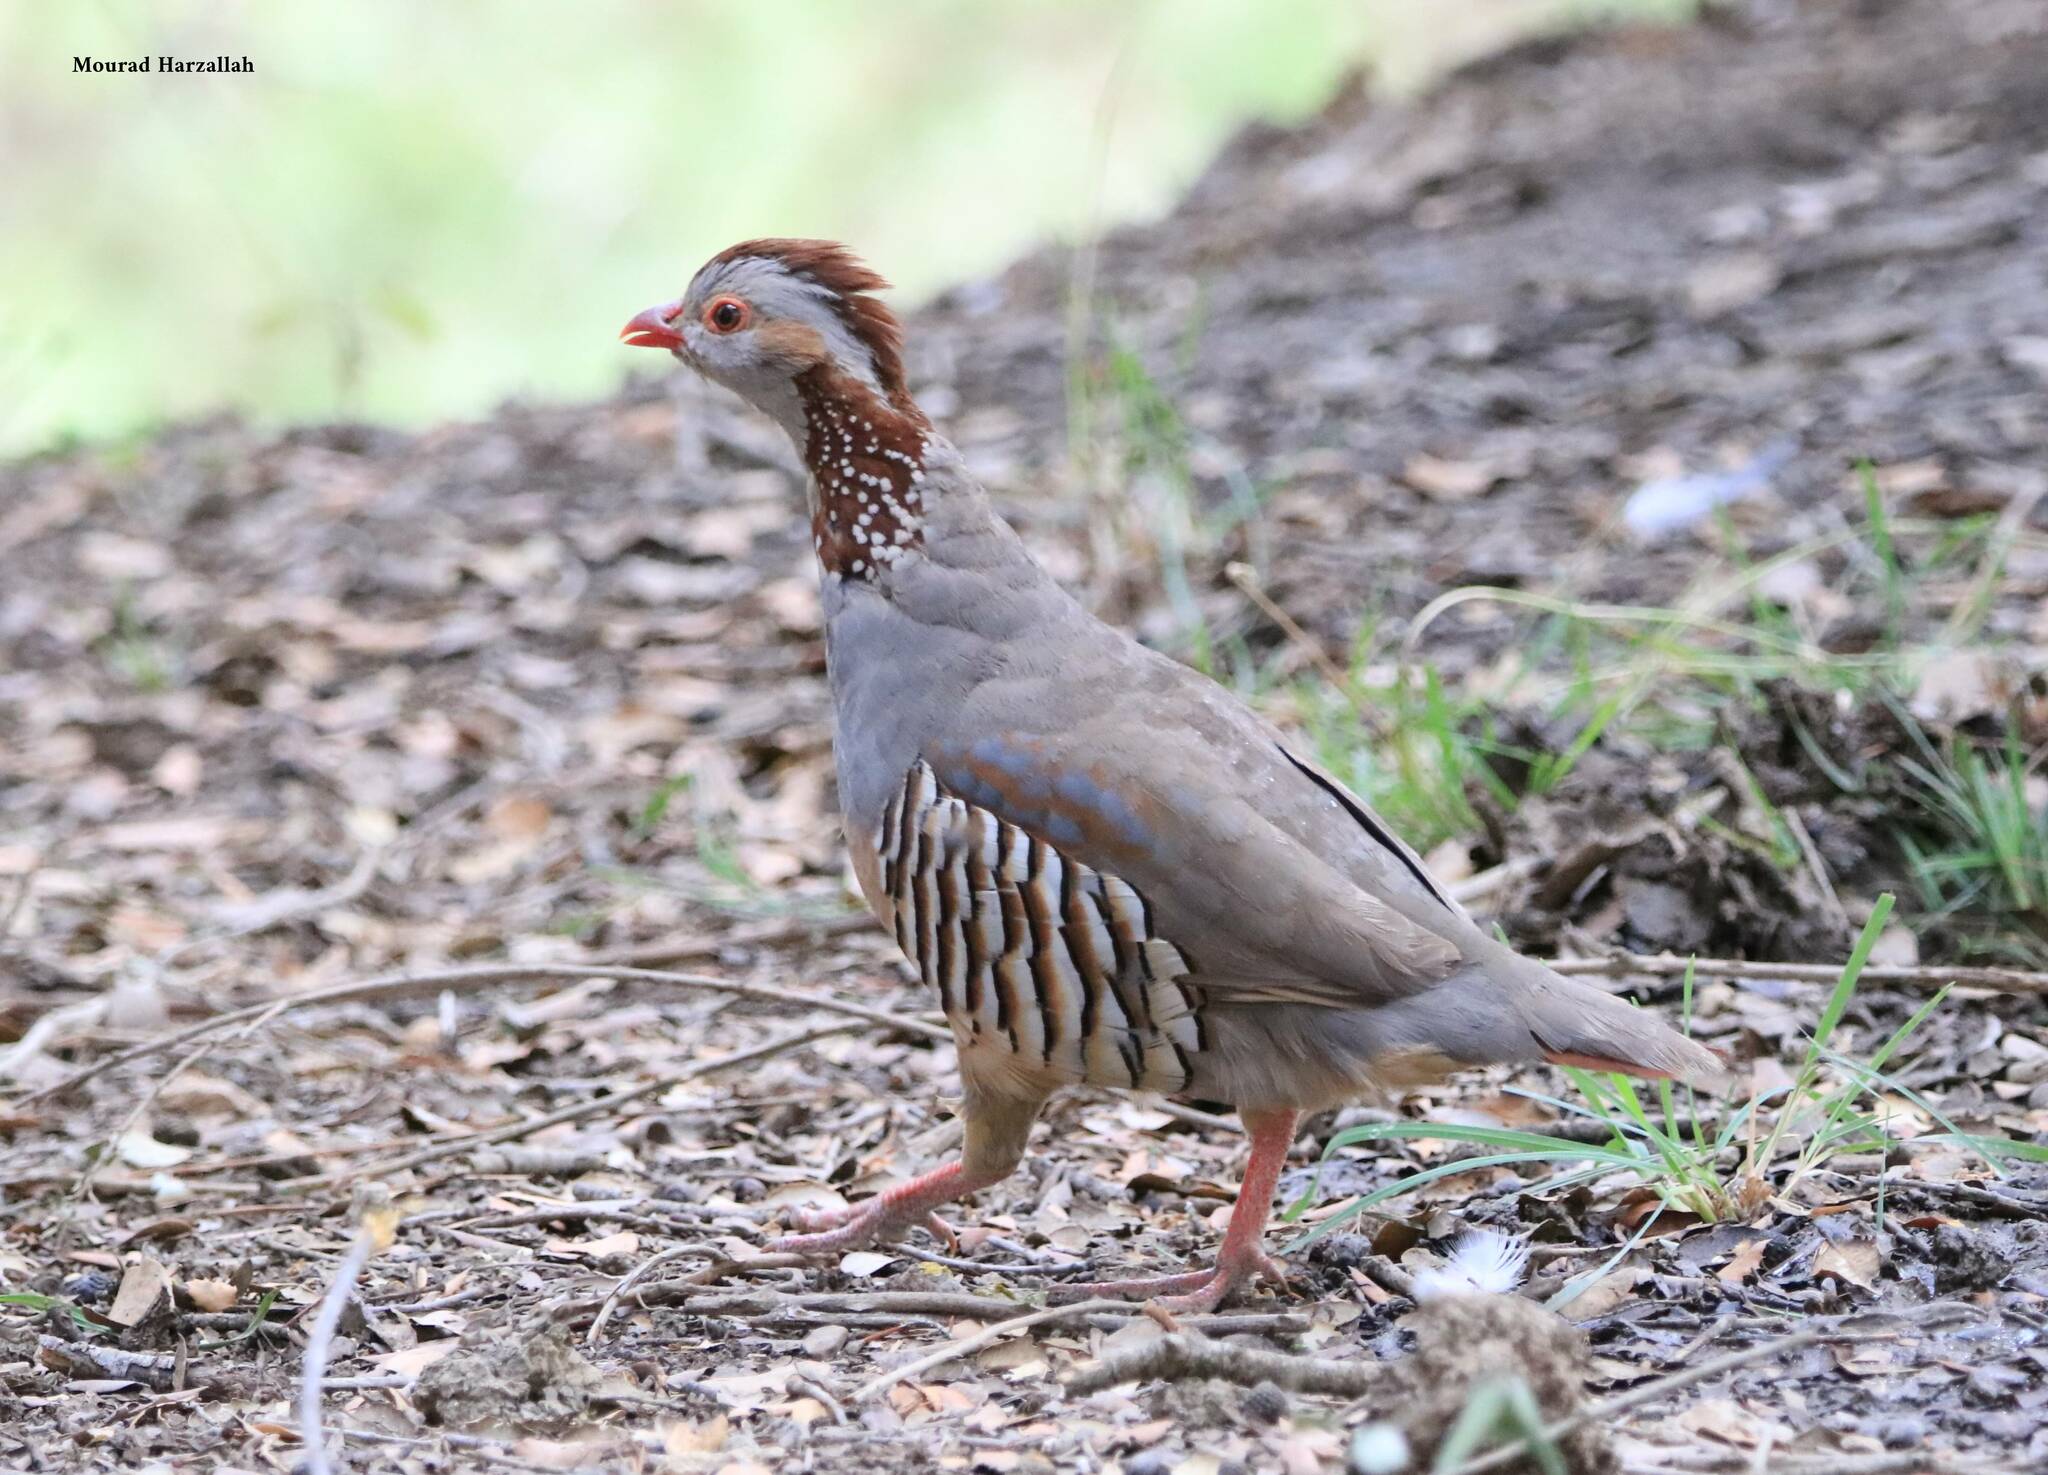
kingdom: Animalia
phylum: Chordata
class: Aves
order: Galliformes
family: Phasianidae
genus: Alectoris
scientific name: Alectoris barbara
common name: Barbary partridge
